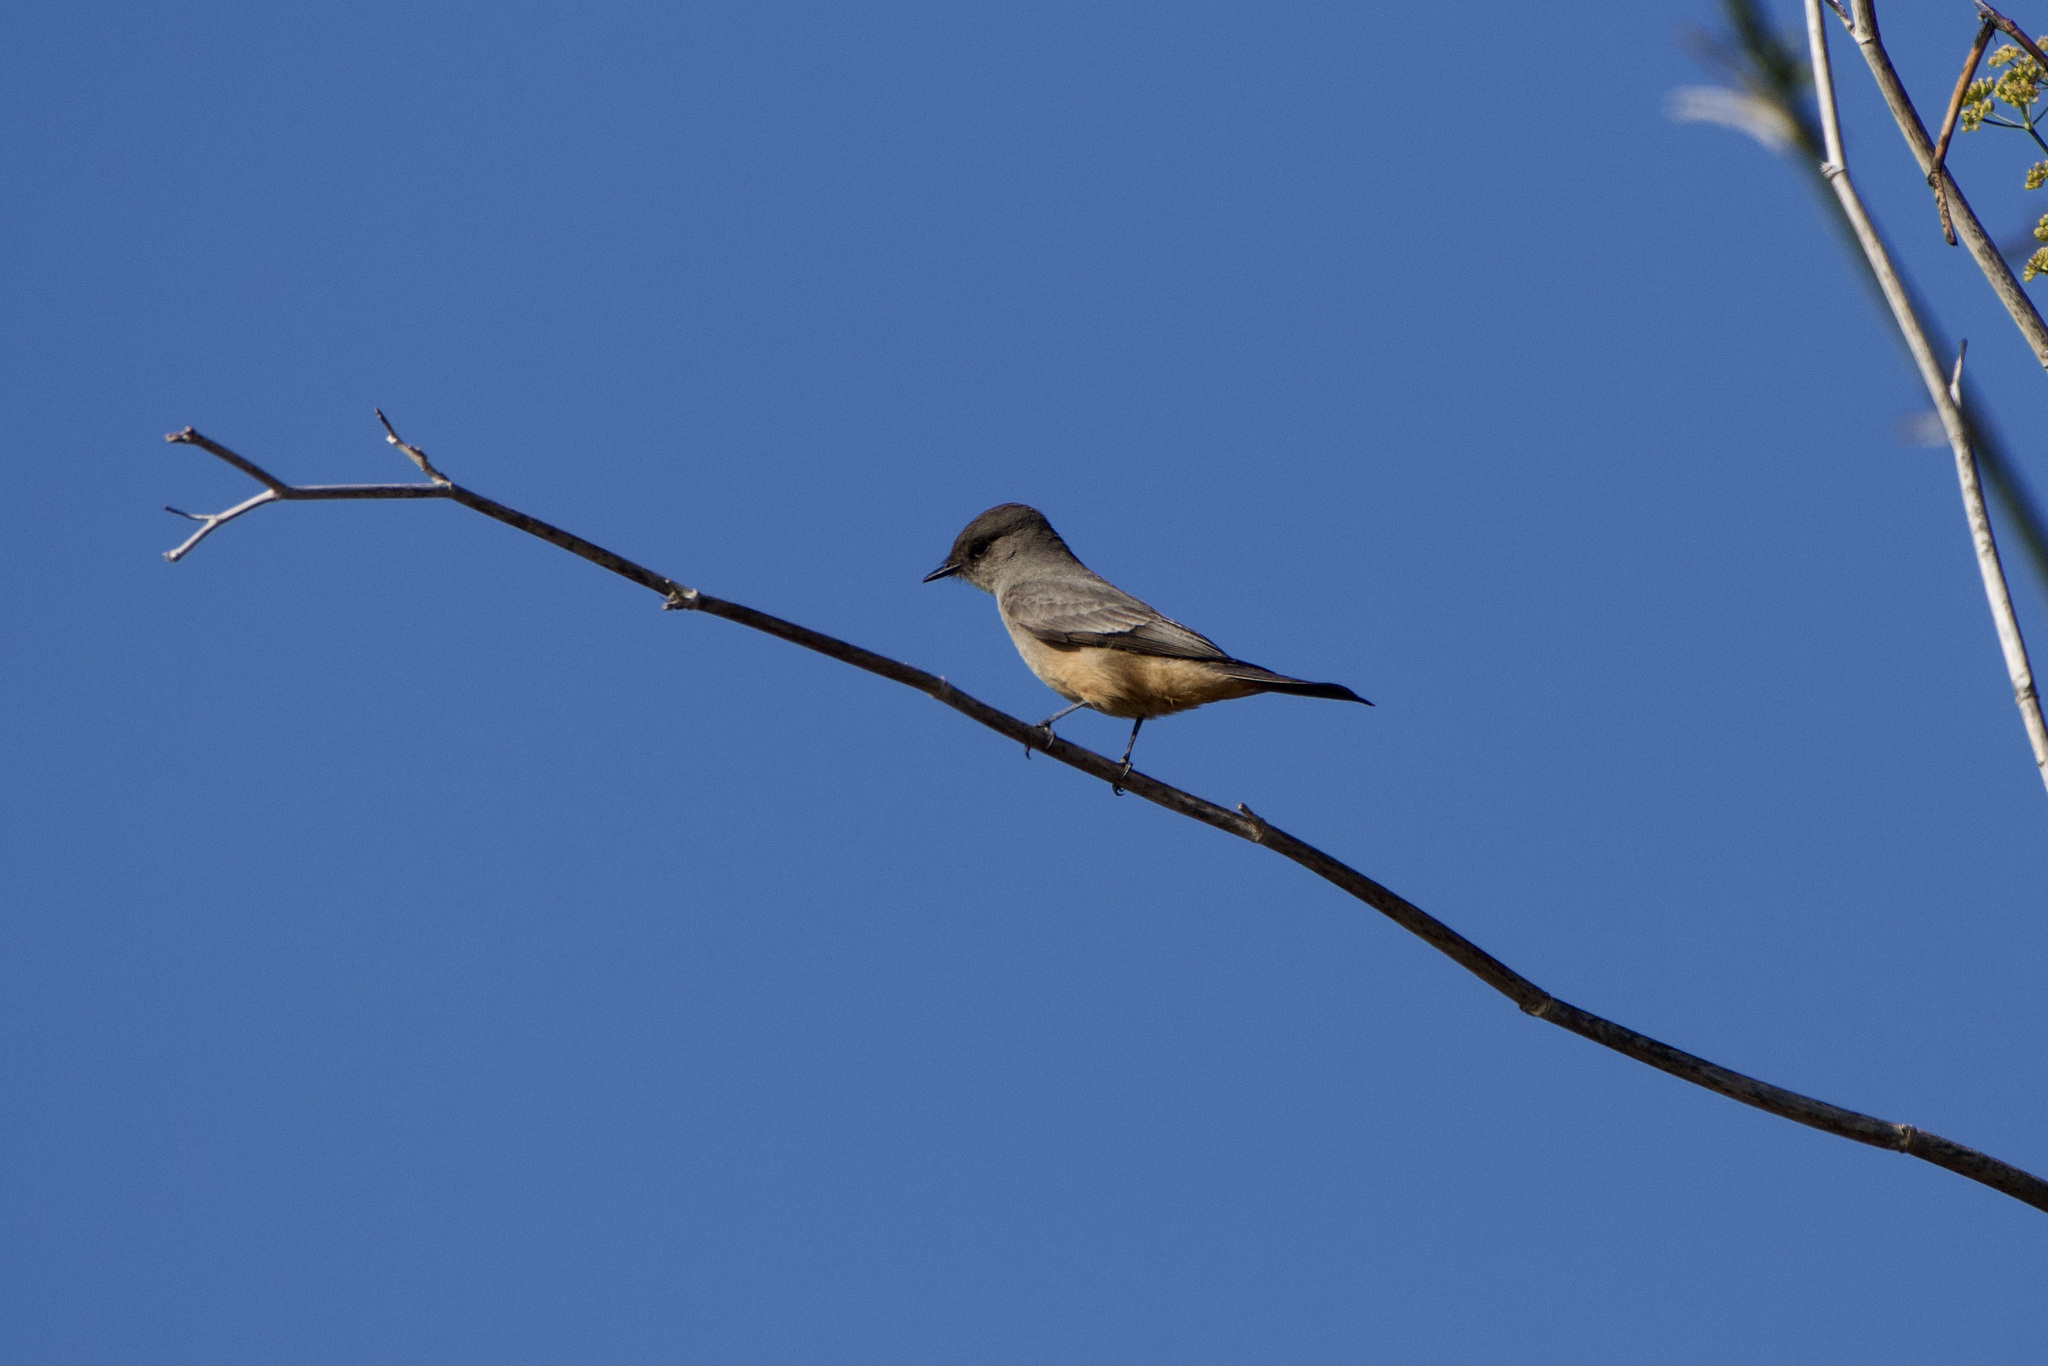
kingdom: Animalia
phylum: Chordata
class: Aves
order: Passeriformes
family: Tyrannidae
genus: Sayornis
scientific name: Sayornis saya
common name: Say's phoebe
